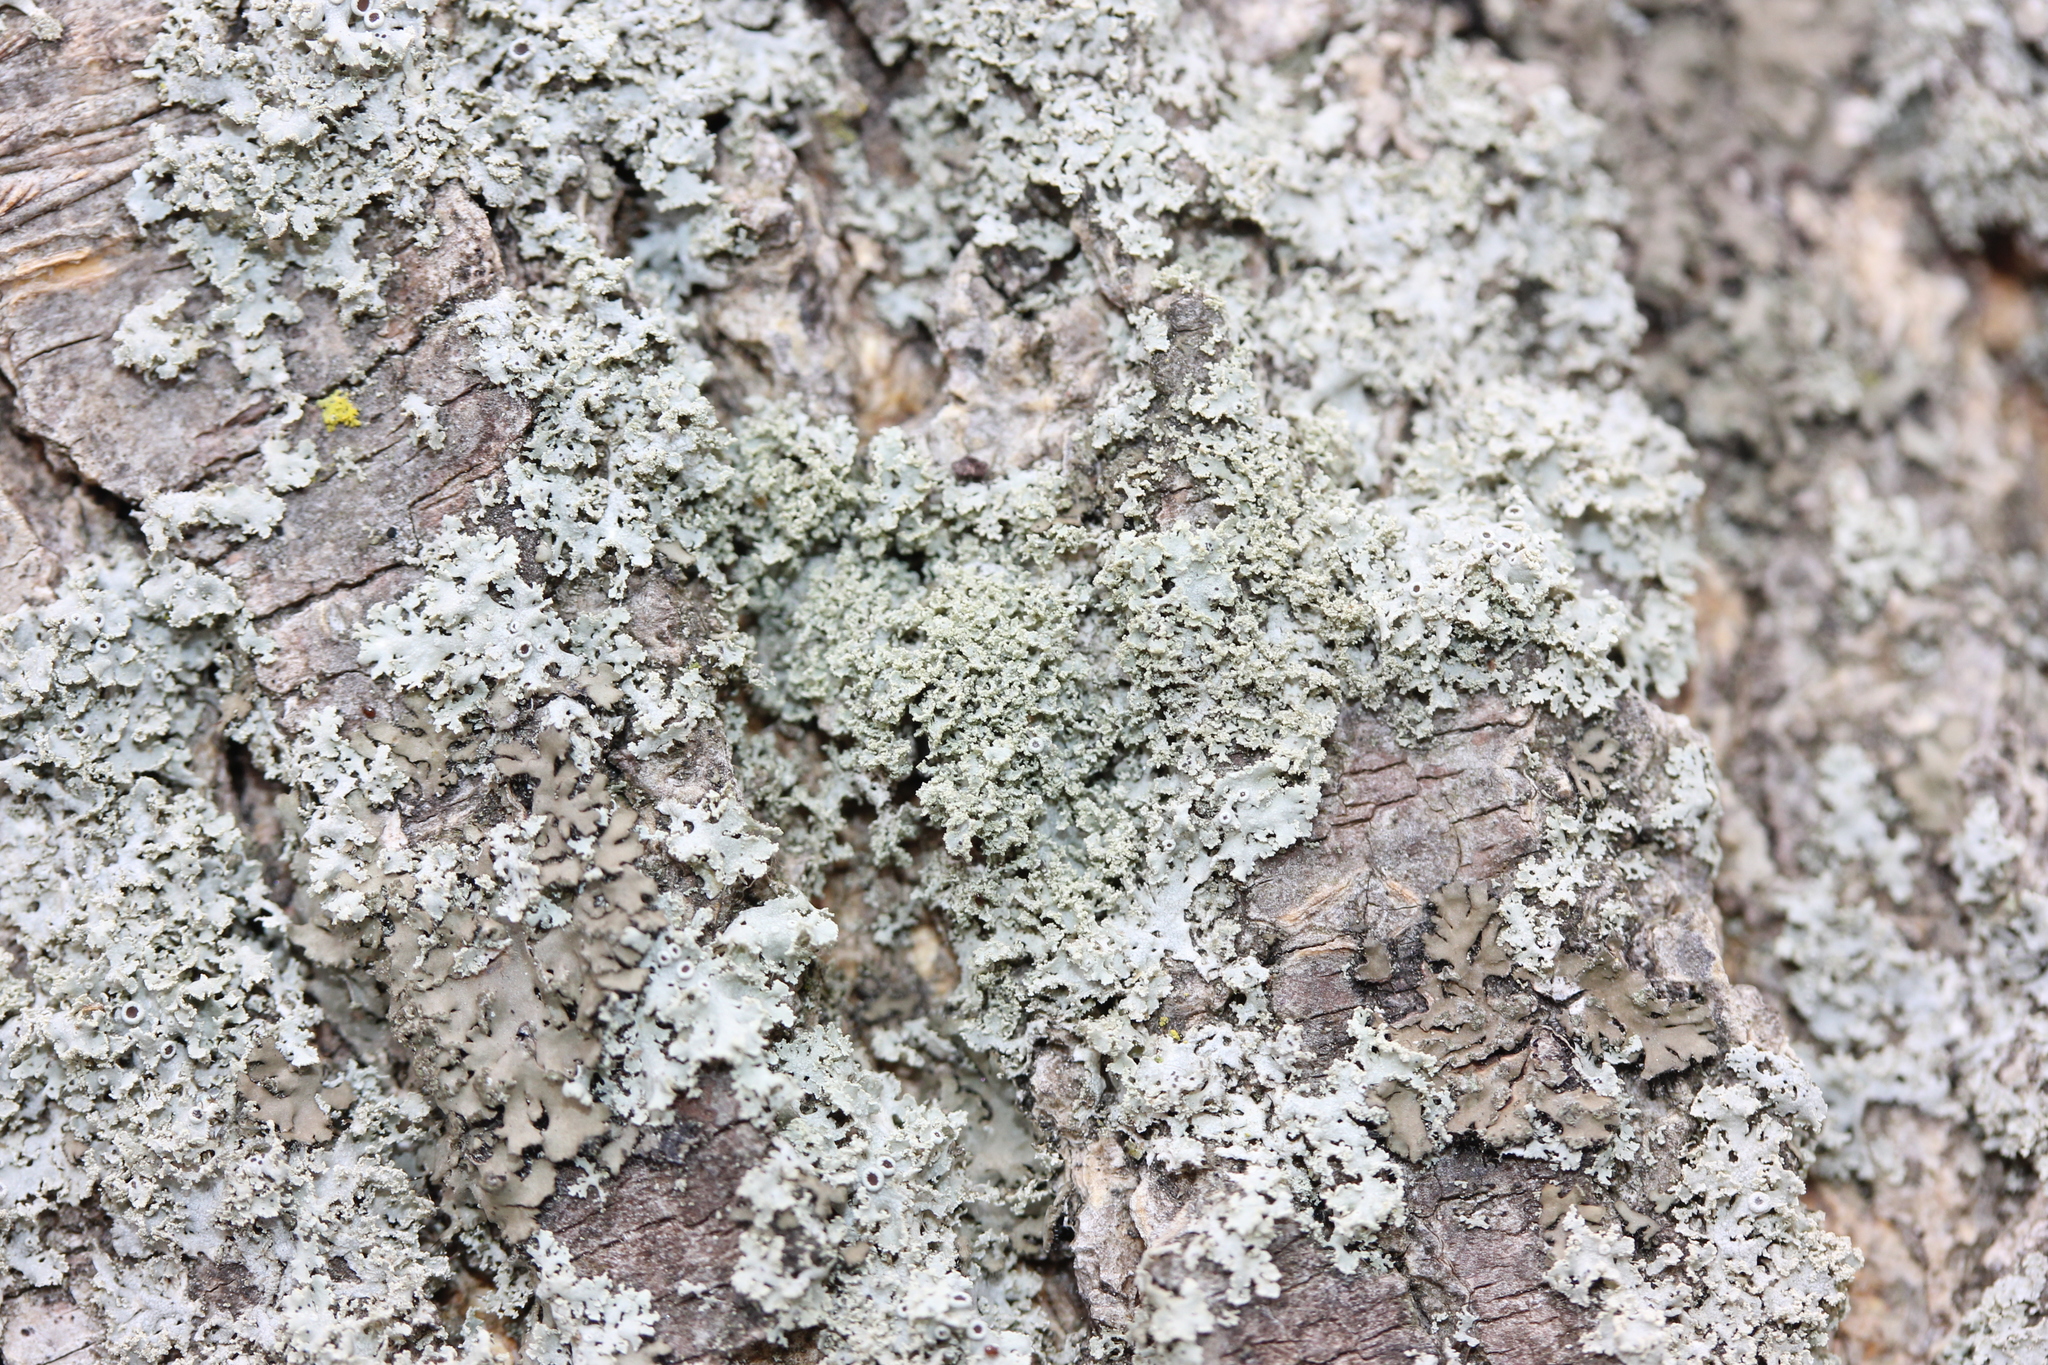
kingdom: Fungi
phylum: Ascomycota
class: Lecanoromycetes
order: Caliciales
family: Physciaceae
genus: Physcia
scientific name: Physcia millegrana
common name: Rosette lichen
